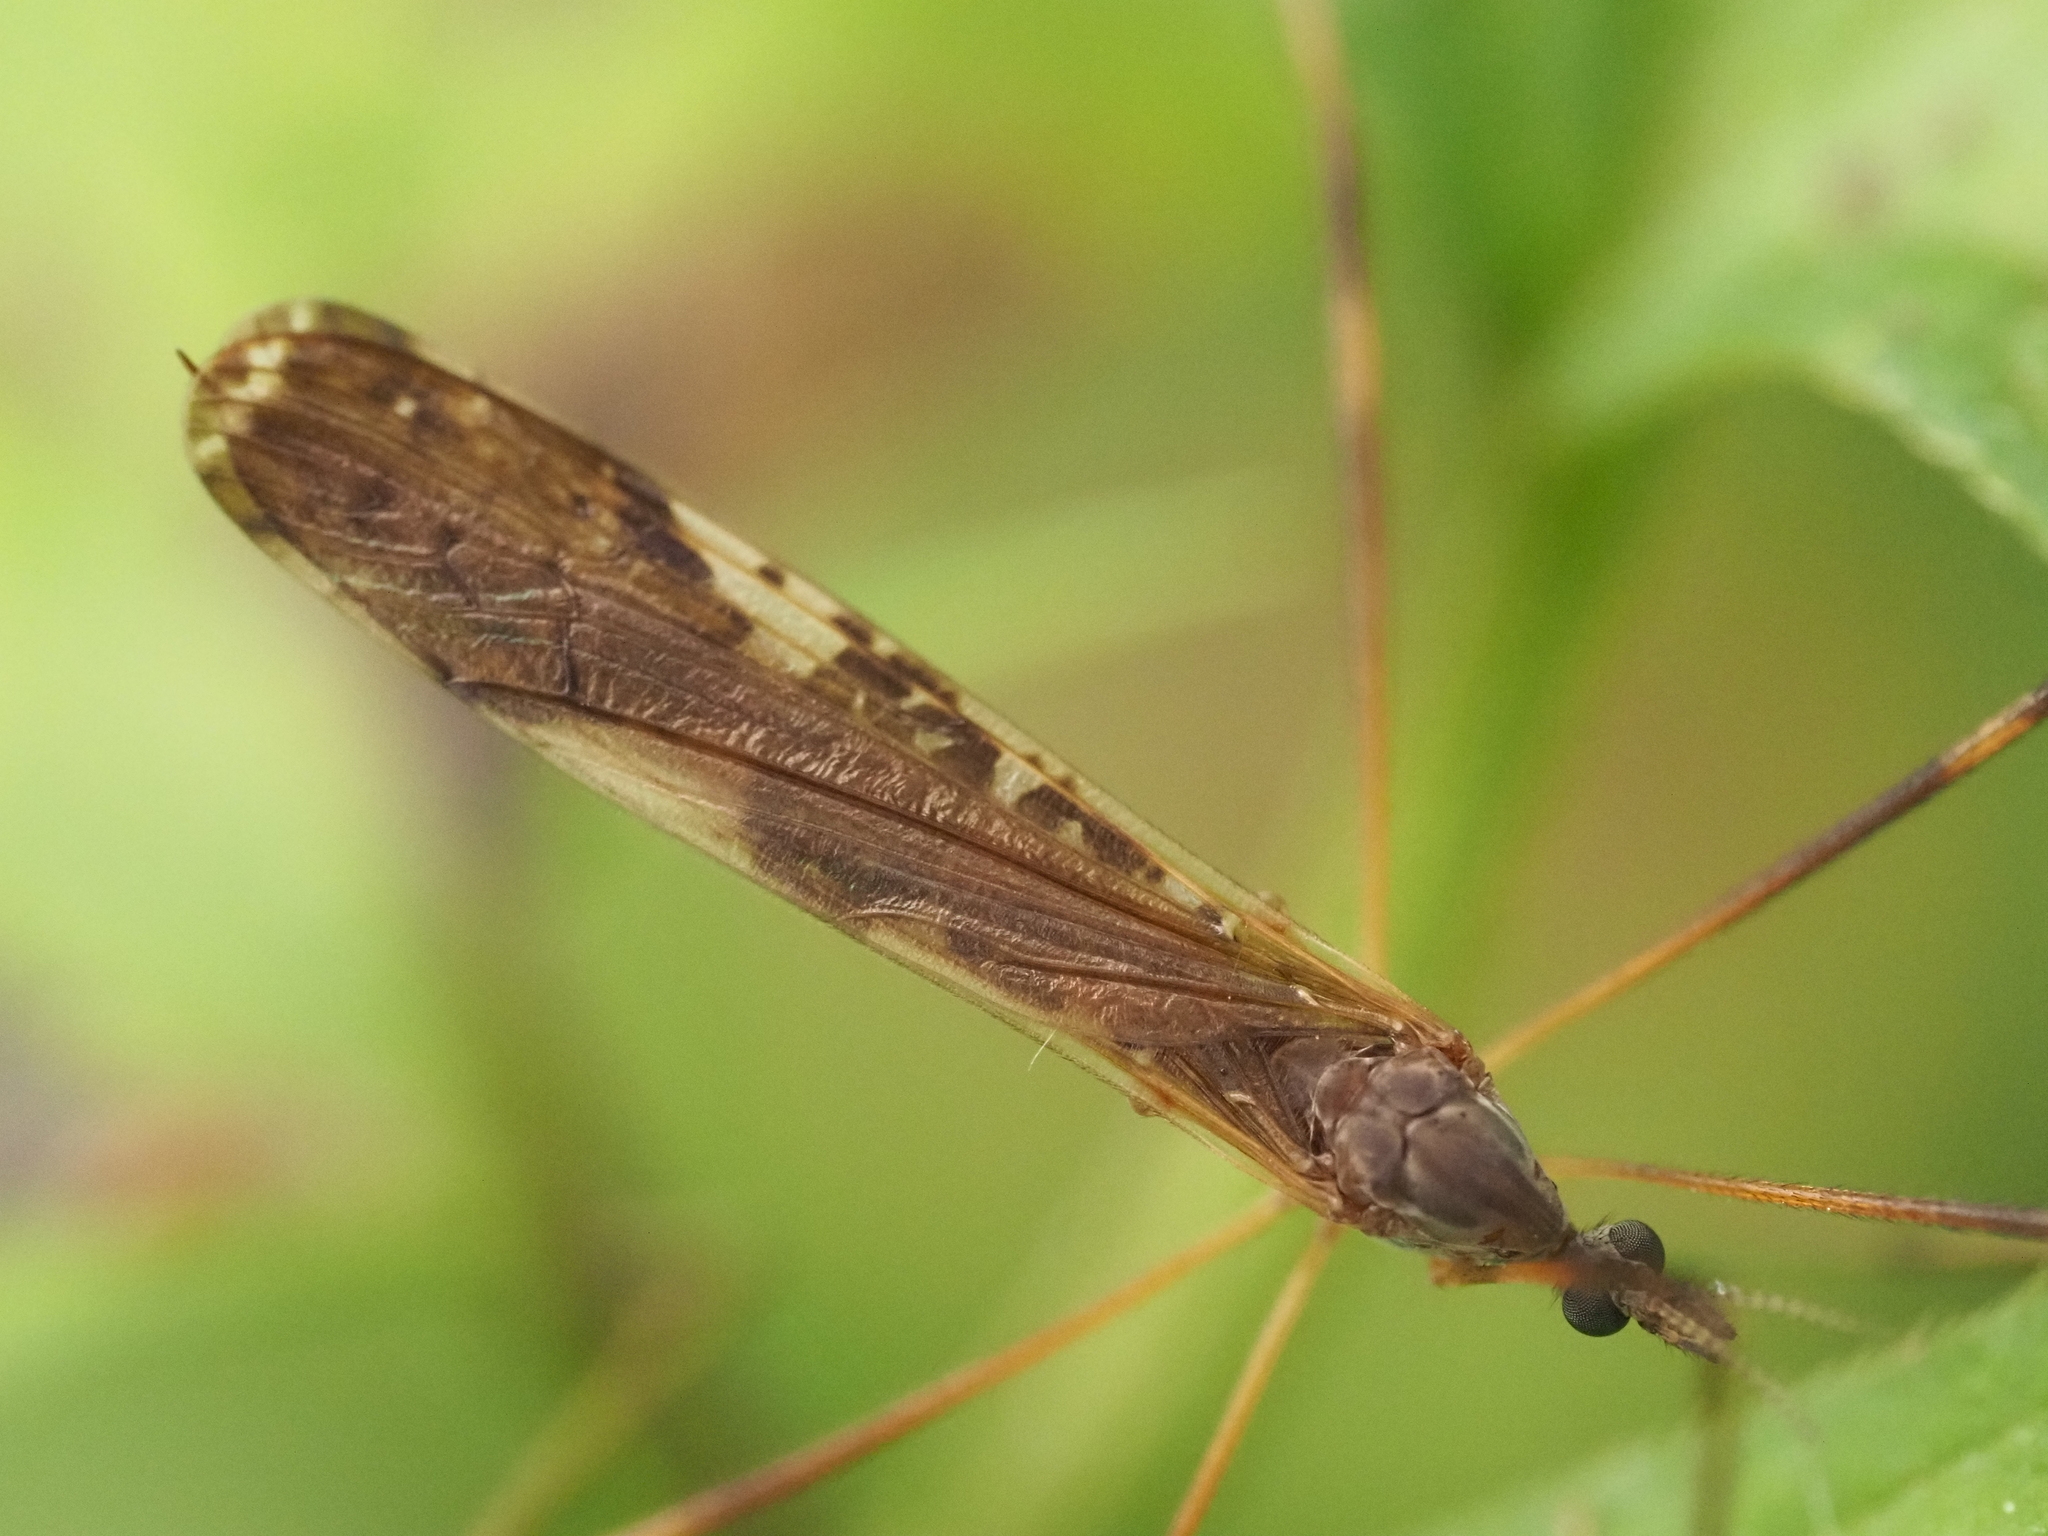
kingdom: Animalia
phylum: Arthropoda
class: Insecta
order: Diptera
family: Limoniidae
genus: Paralimnophila
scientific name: Paralimnophila skusei
